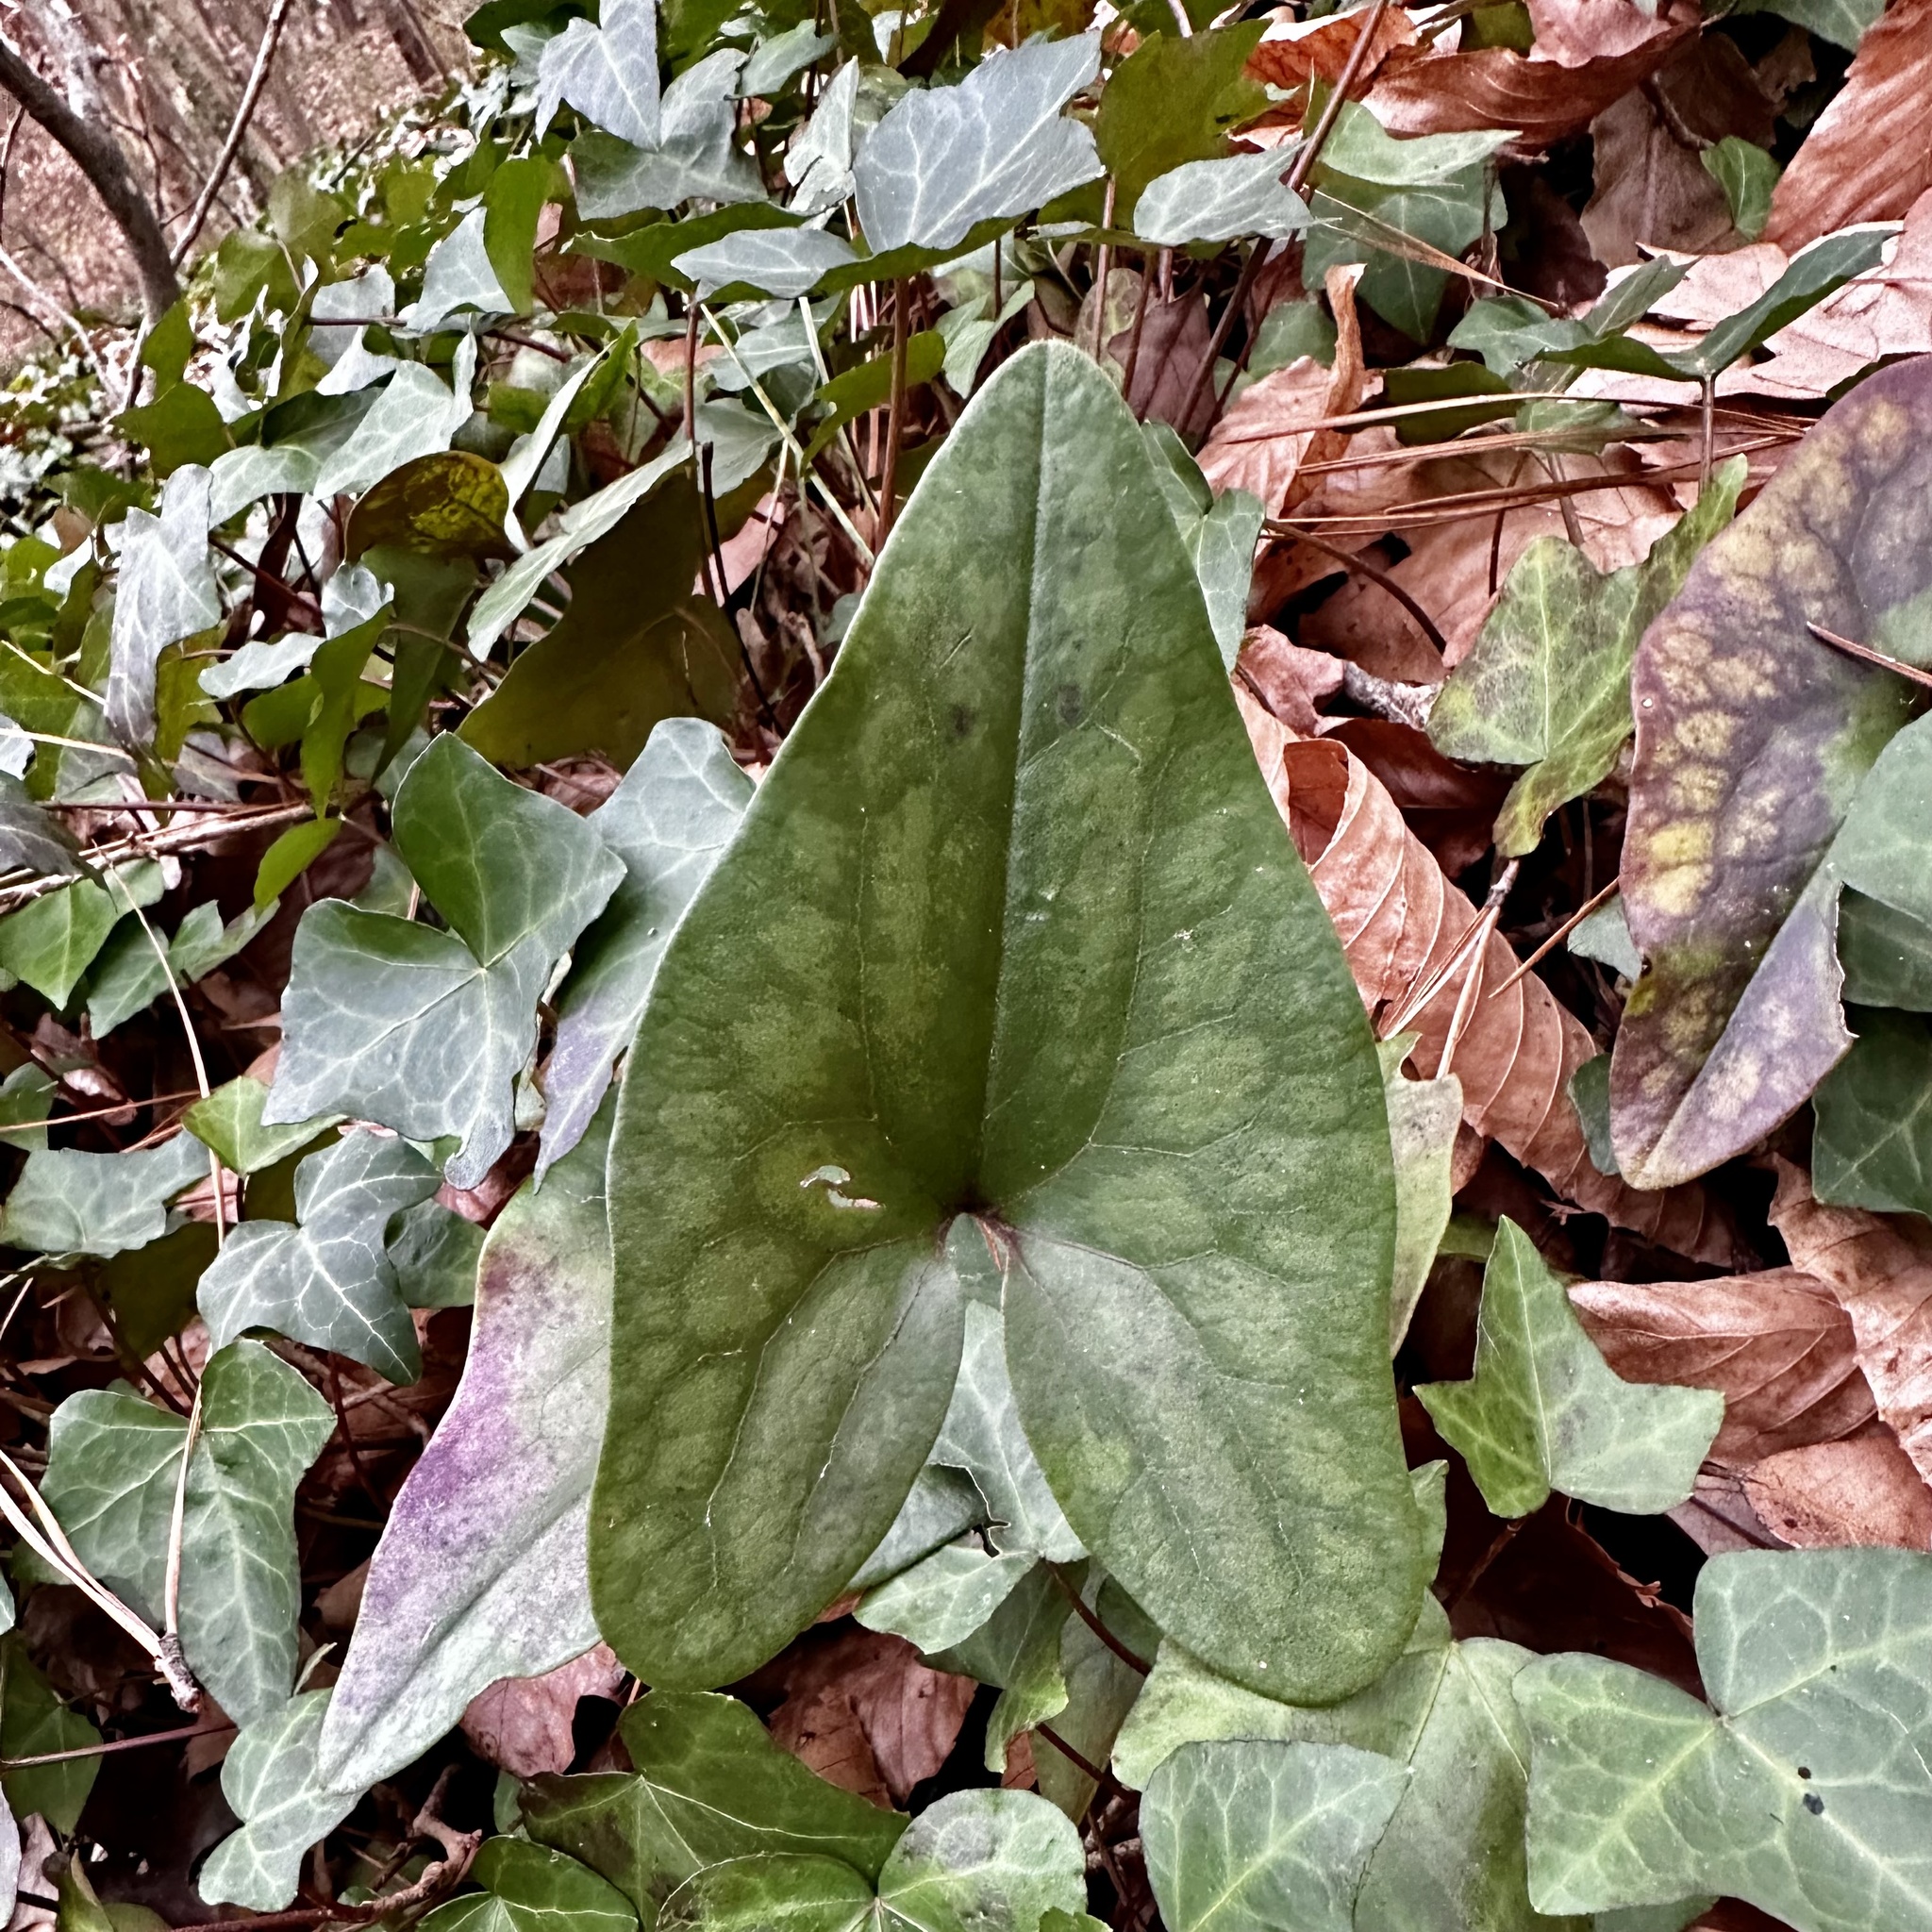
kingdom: Plantae
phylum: Tracheophyta
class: Magnoliopsida
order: Piperales
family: Aristolochiaceae
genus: Hexastylis
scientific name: Hexastylis arifolia
